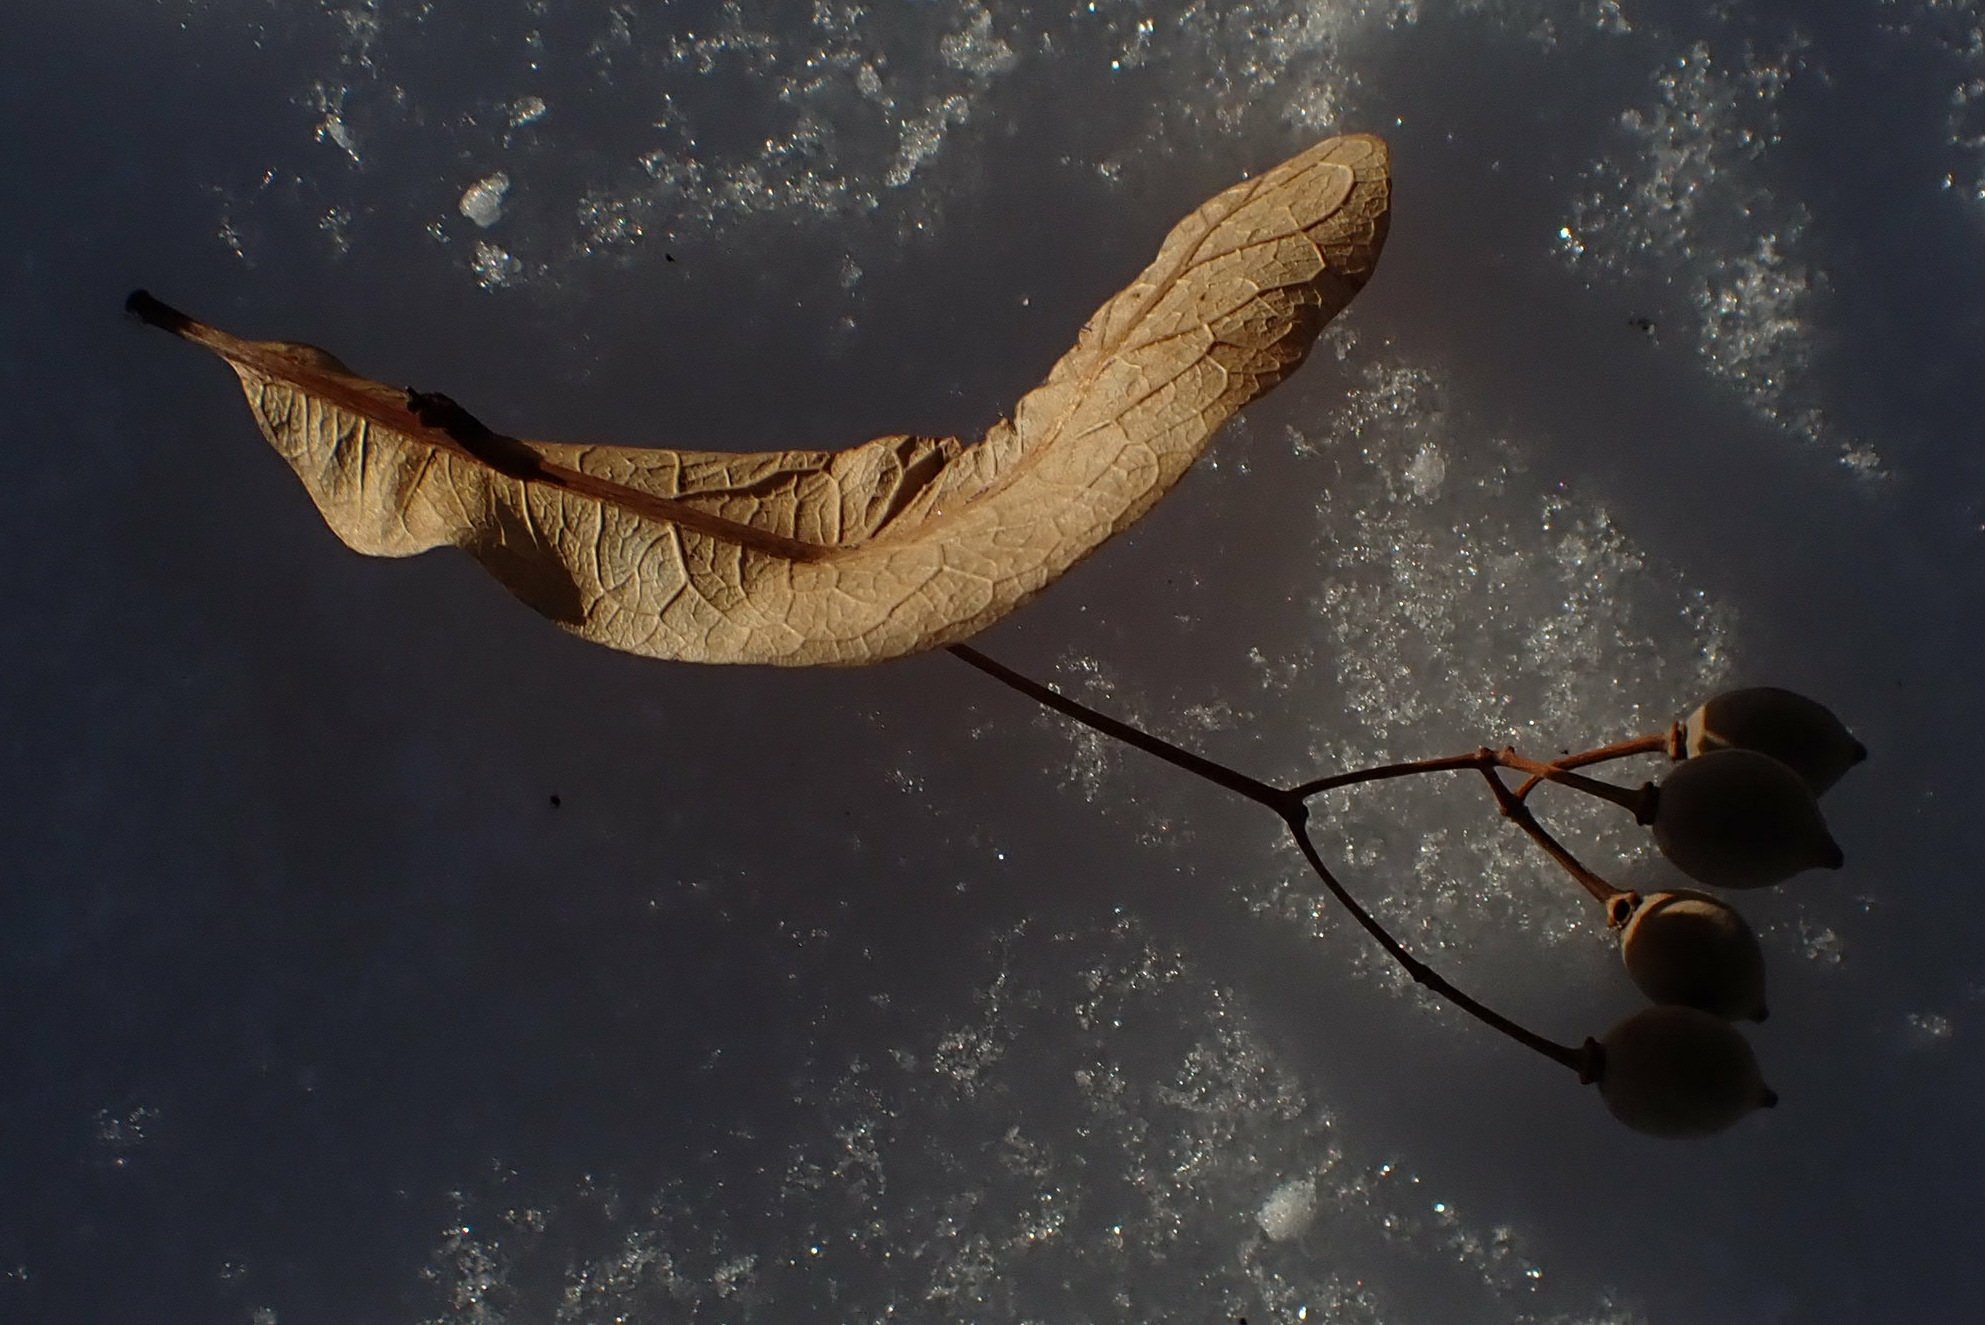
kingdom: Plantae
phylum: Tracheophyta
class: Magnoliopsida
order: Malvales
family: Malvaceae
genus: Tilia
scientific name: Tilia americana
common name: Basswood
